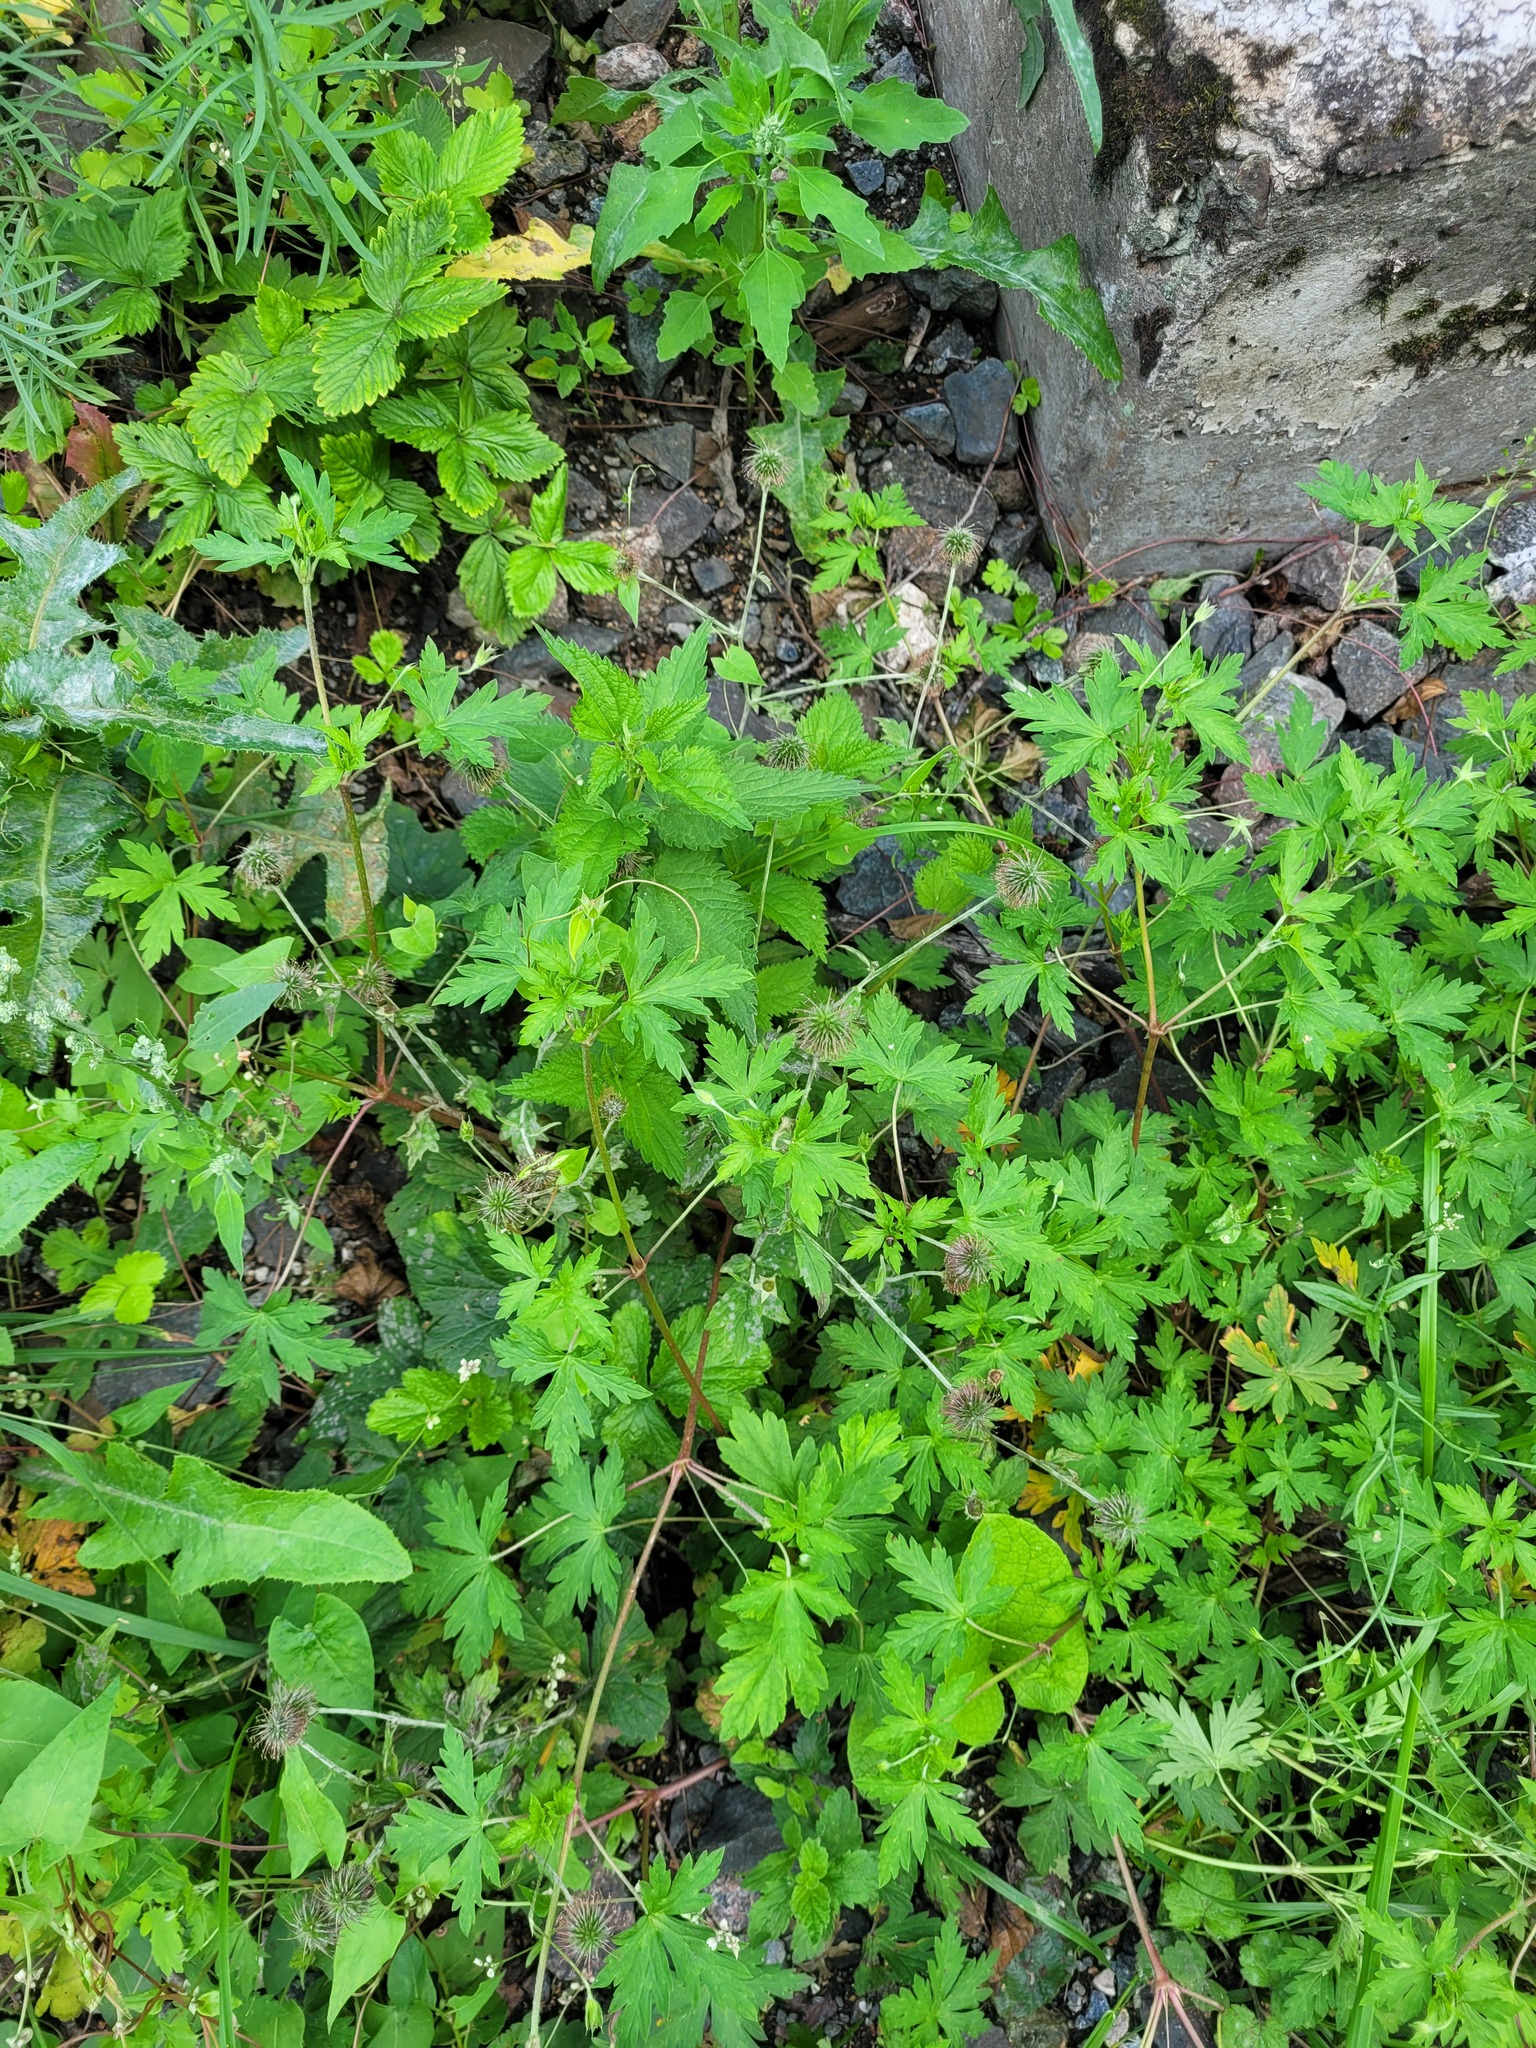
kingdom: Plantae
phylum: Tracheophyta
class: Magnoliopsida
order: Rosales
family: Rosaceae
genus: Geum
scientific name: Geum urbanum
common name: Wood avens
